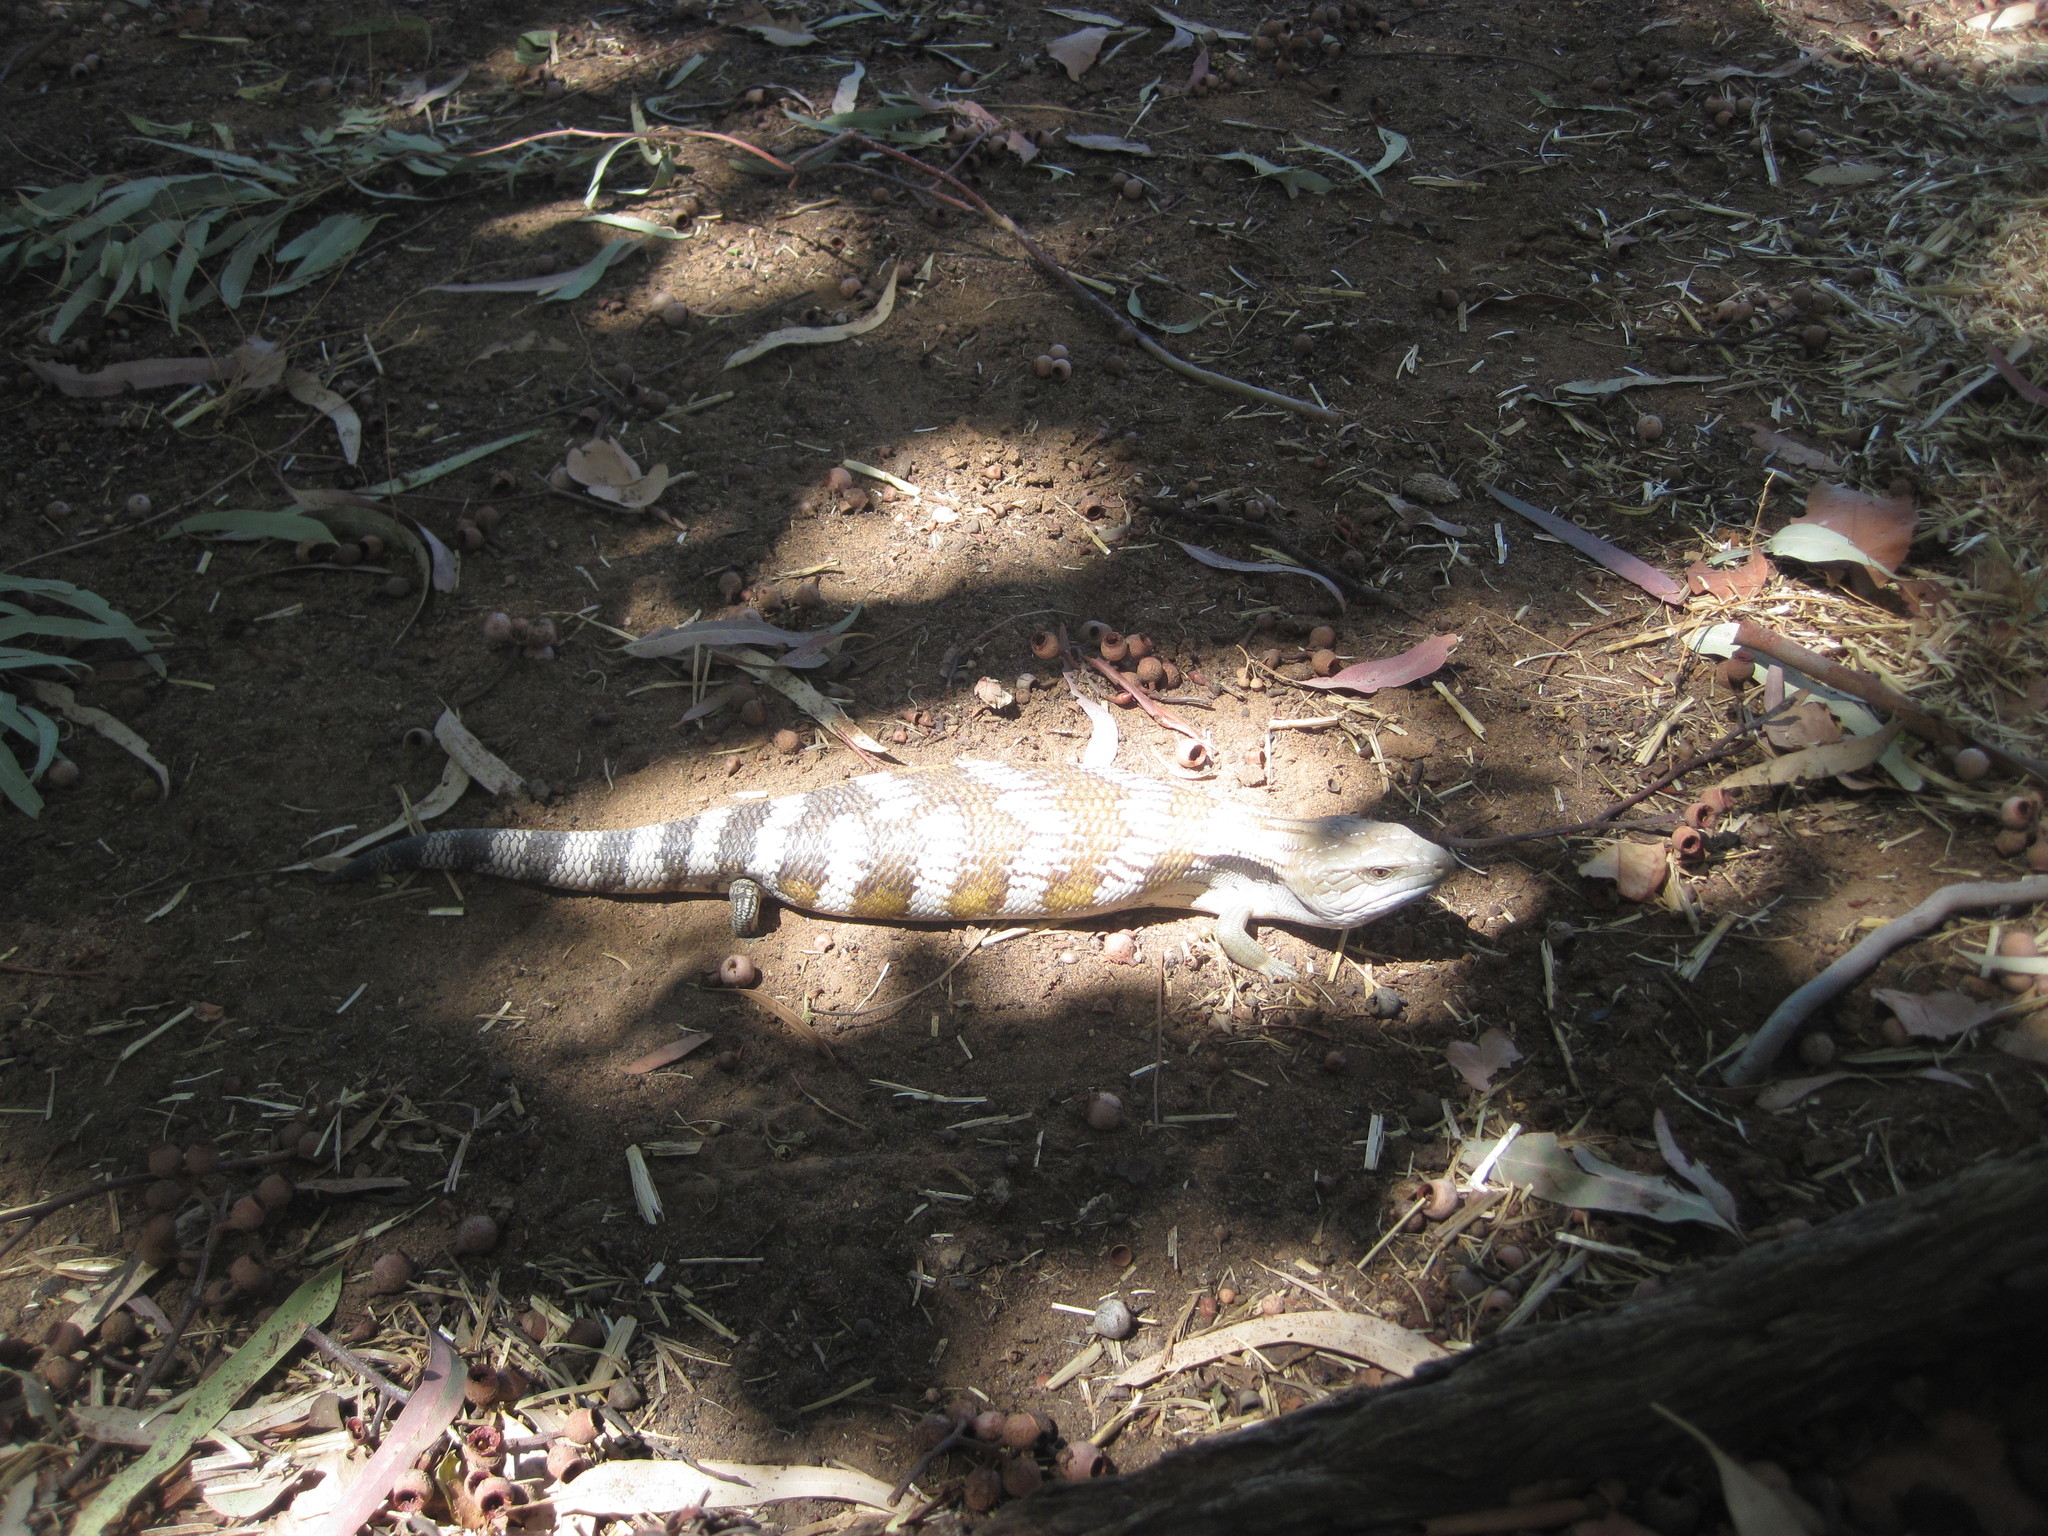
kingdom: Animalia
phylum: Chordata
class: Squamata
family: Scincidae
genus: Tiliqua
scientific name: Tiliqua scincoides
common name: Common bluetongue
